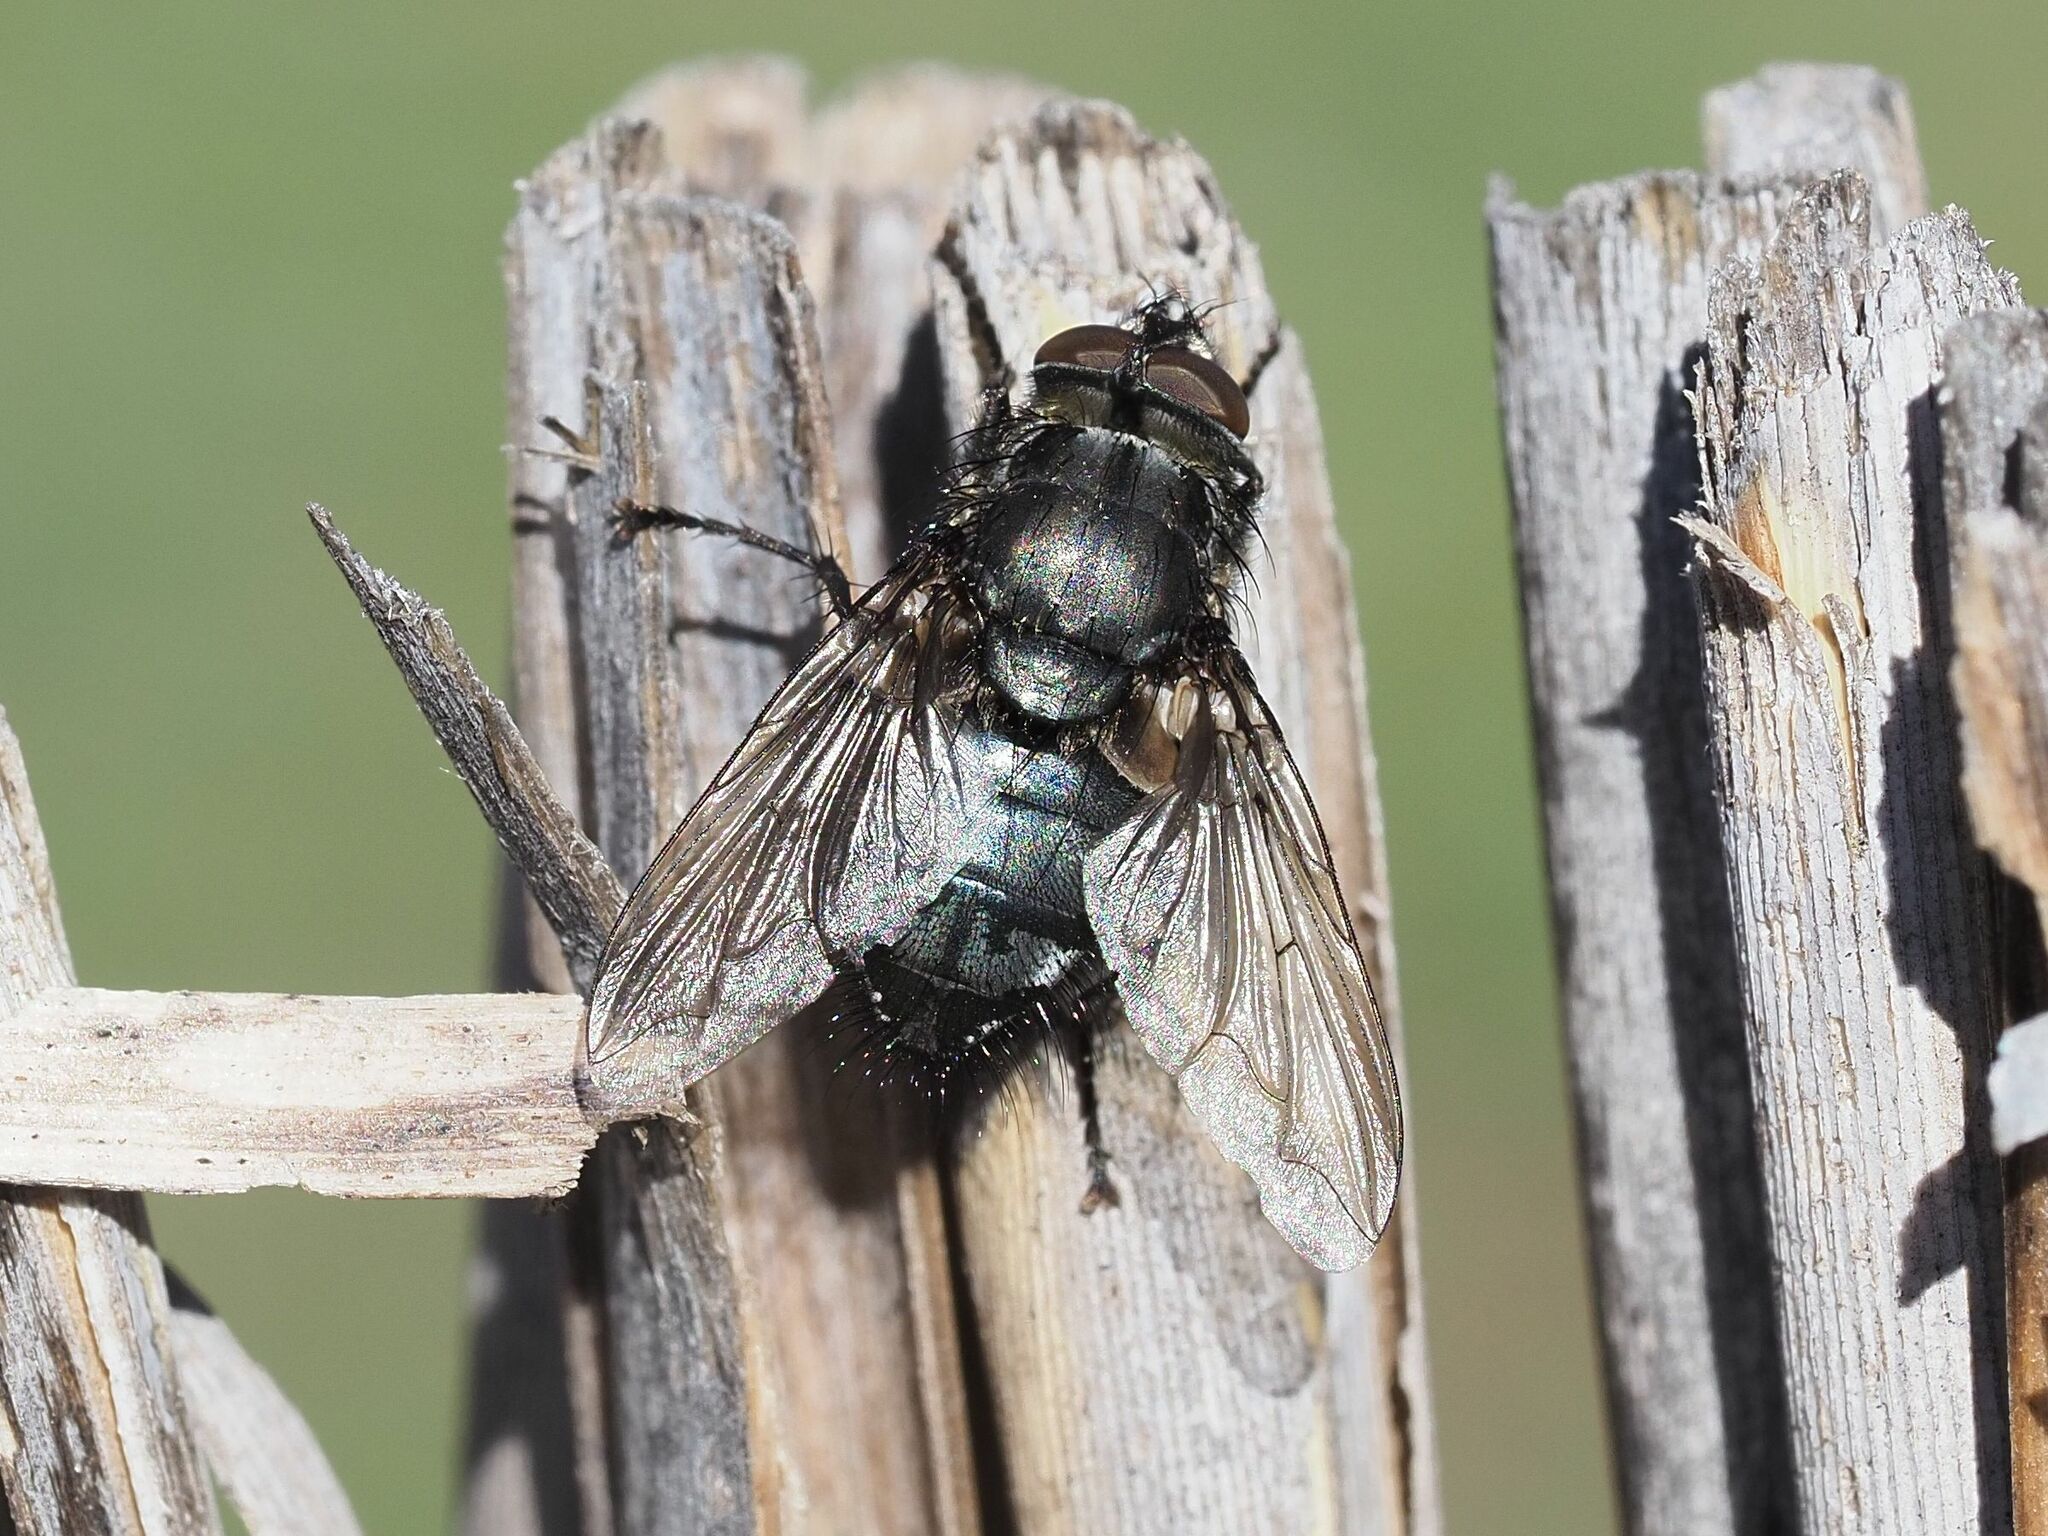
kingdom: Animalia
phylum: Arthropoda
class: Insecta
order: Diptera
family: Polleniidae
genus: Pollenia
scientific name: Pollenia vagabunda
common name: Vagabund cluster fly
